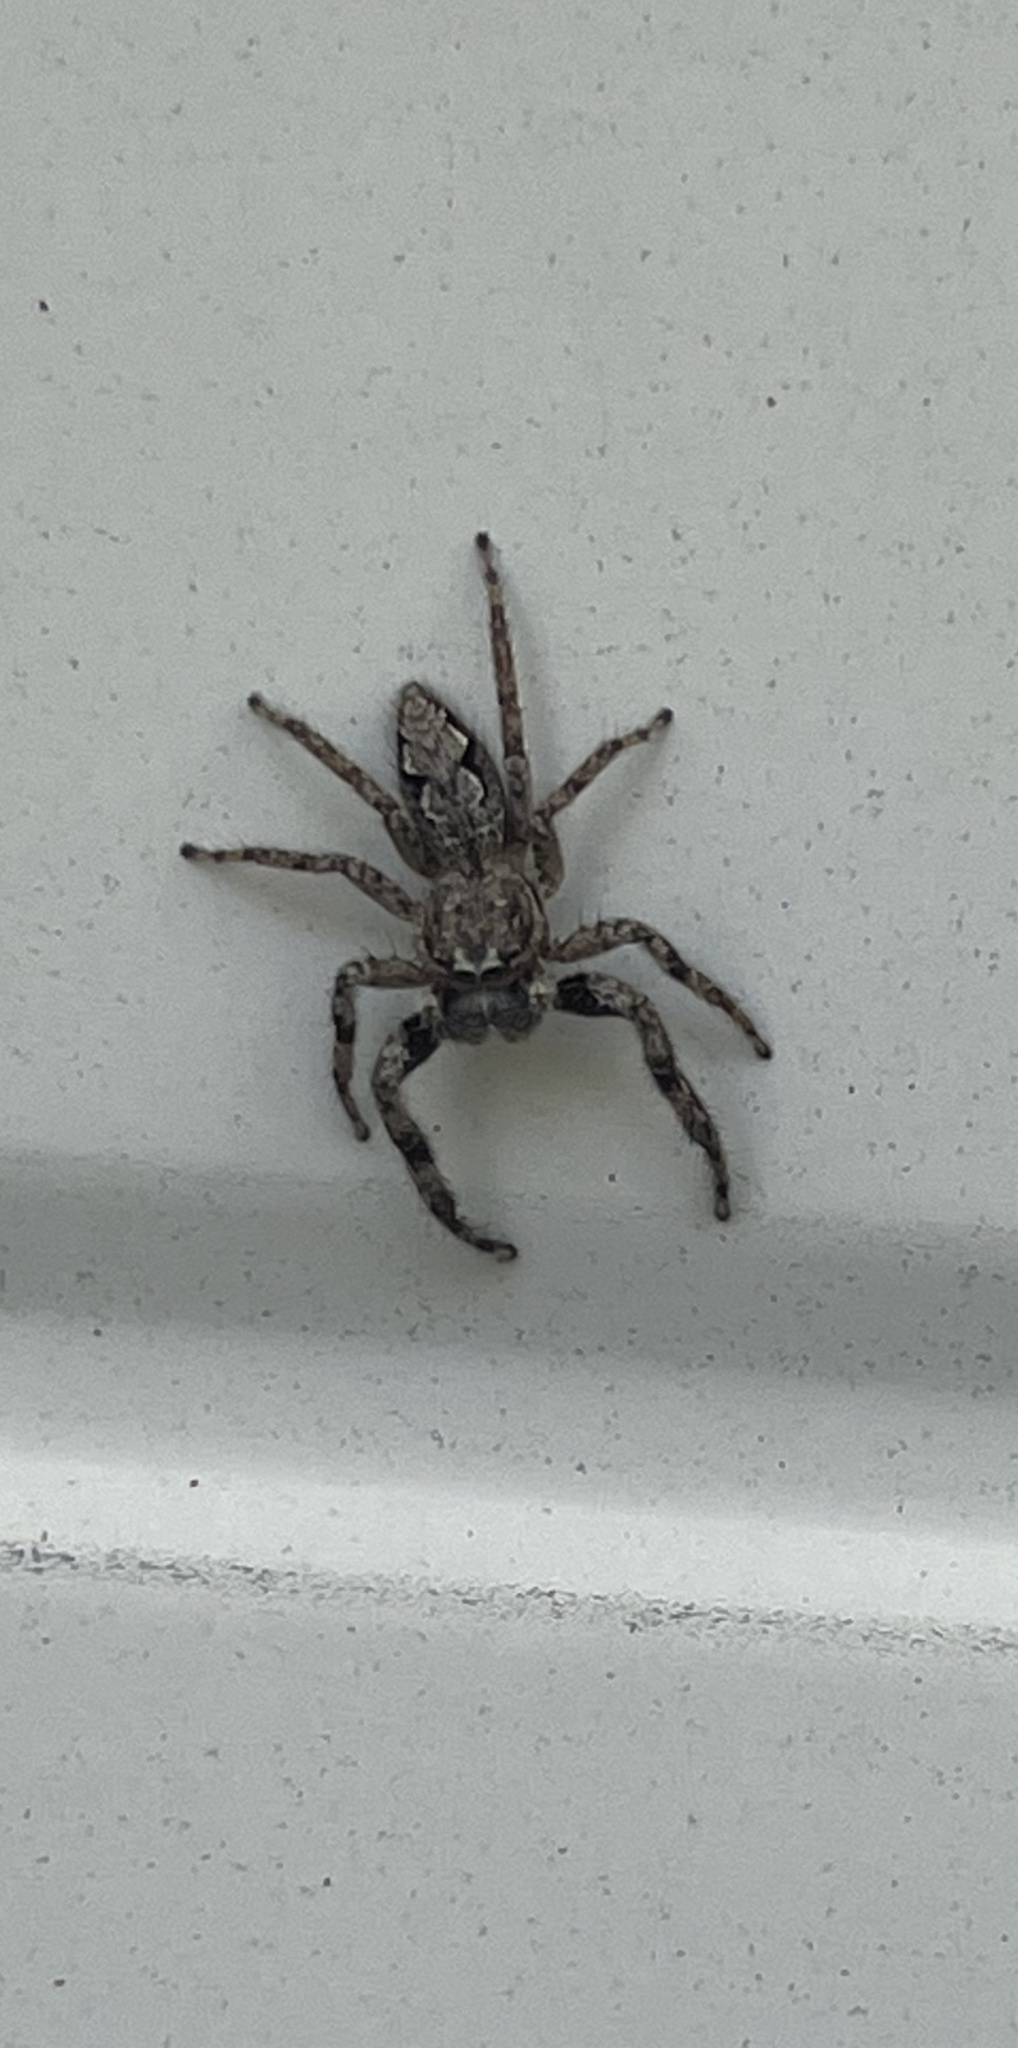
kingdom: Animalia
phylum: Arthropoda
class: Arachnida
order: Araneae
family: Salticidae
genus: Platycryptus
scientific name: Platycryptus undatus
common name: Tan jumping spider
